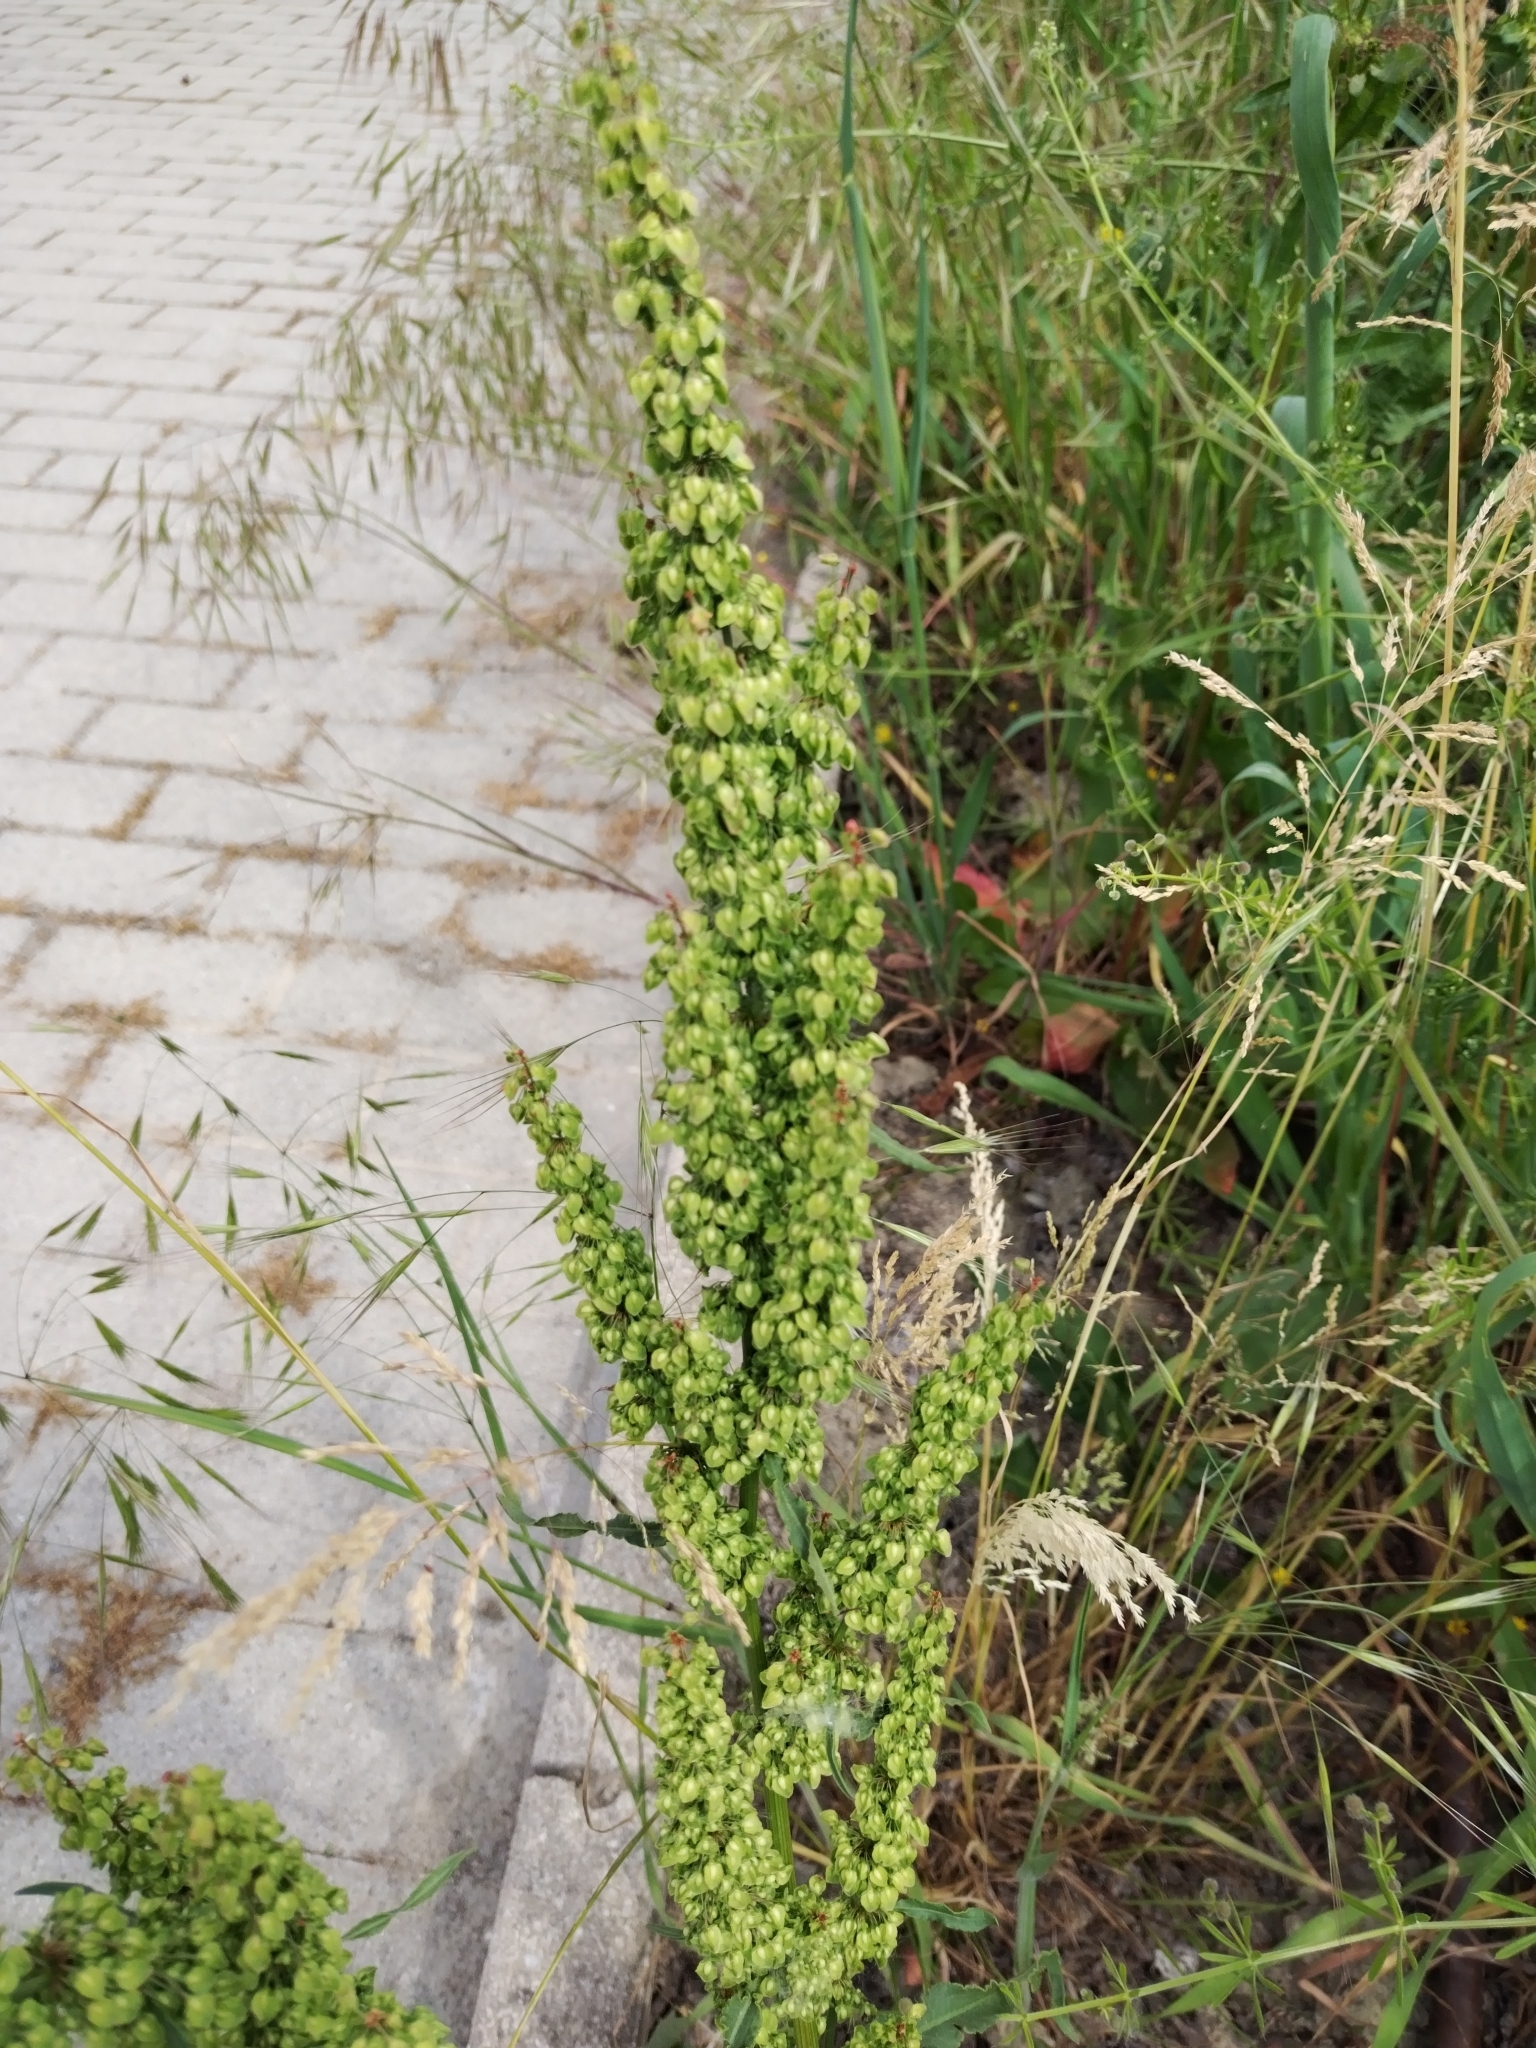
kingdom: Plantae
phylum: Tracheophyta
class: Magnoliopsida
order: Caryophyllales
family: Polygonaceae
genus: Rumex
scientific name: Rumex crispus
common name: Curled dock
